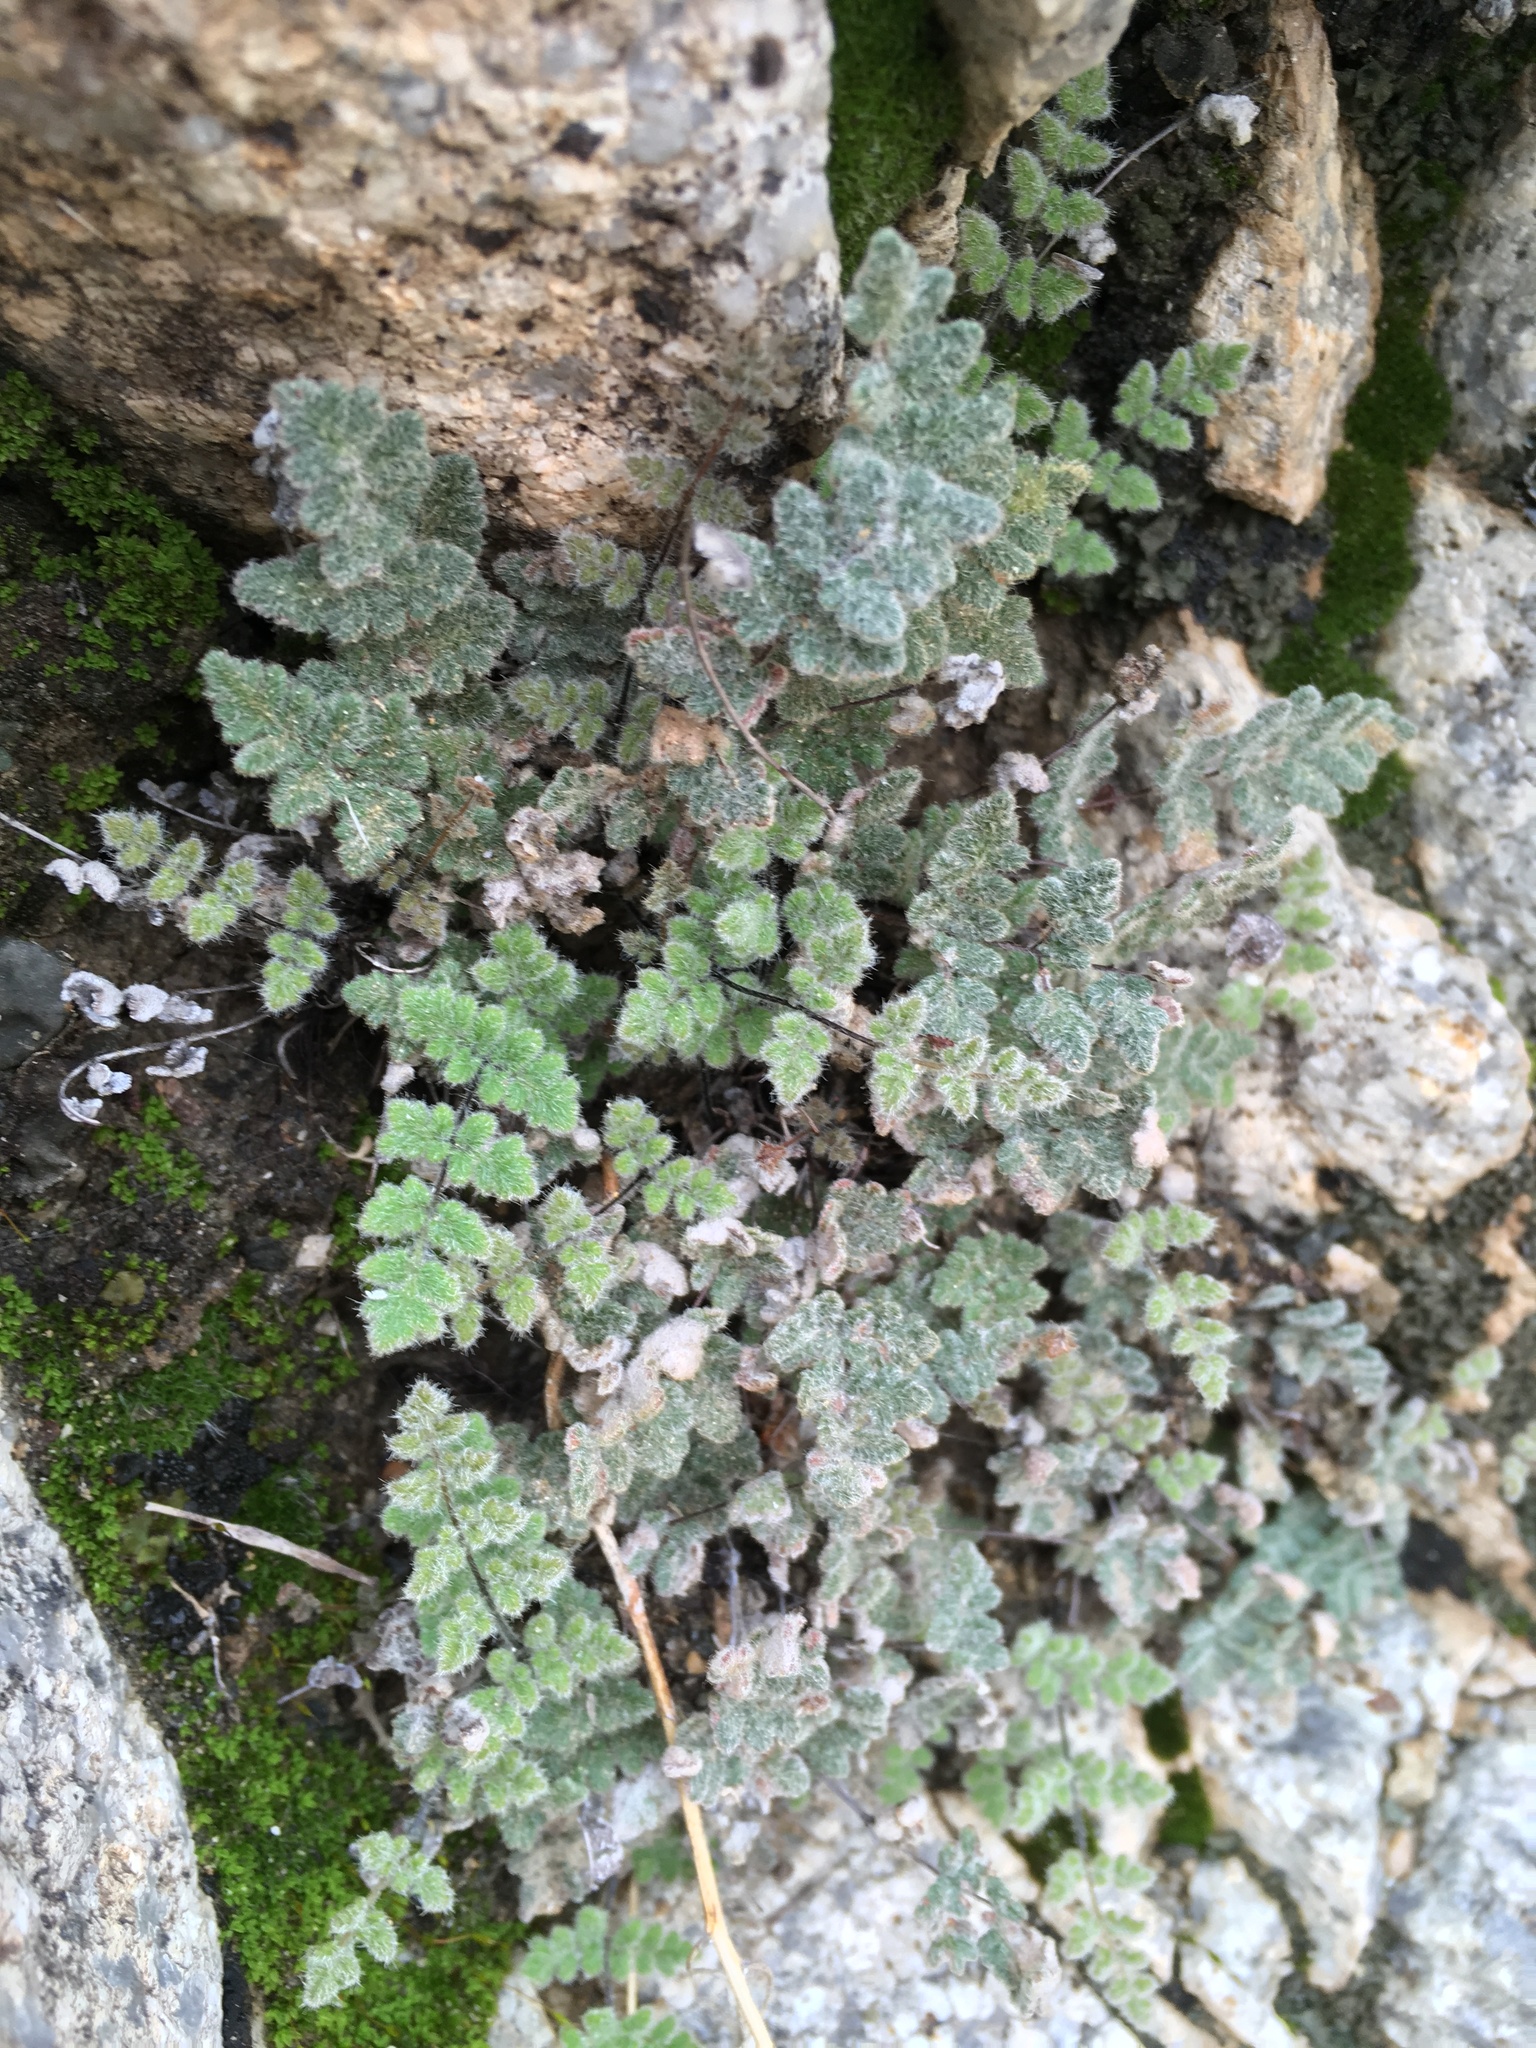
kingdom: Plantae
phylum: Tracheophyta
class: Polypodiopsida
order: Polypodiales
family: Pteridaceae
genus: Myriopteris
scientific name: Myriopteris parryi
